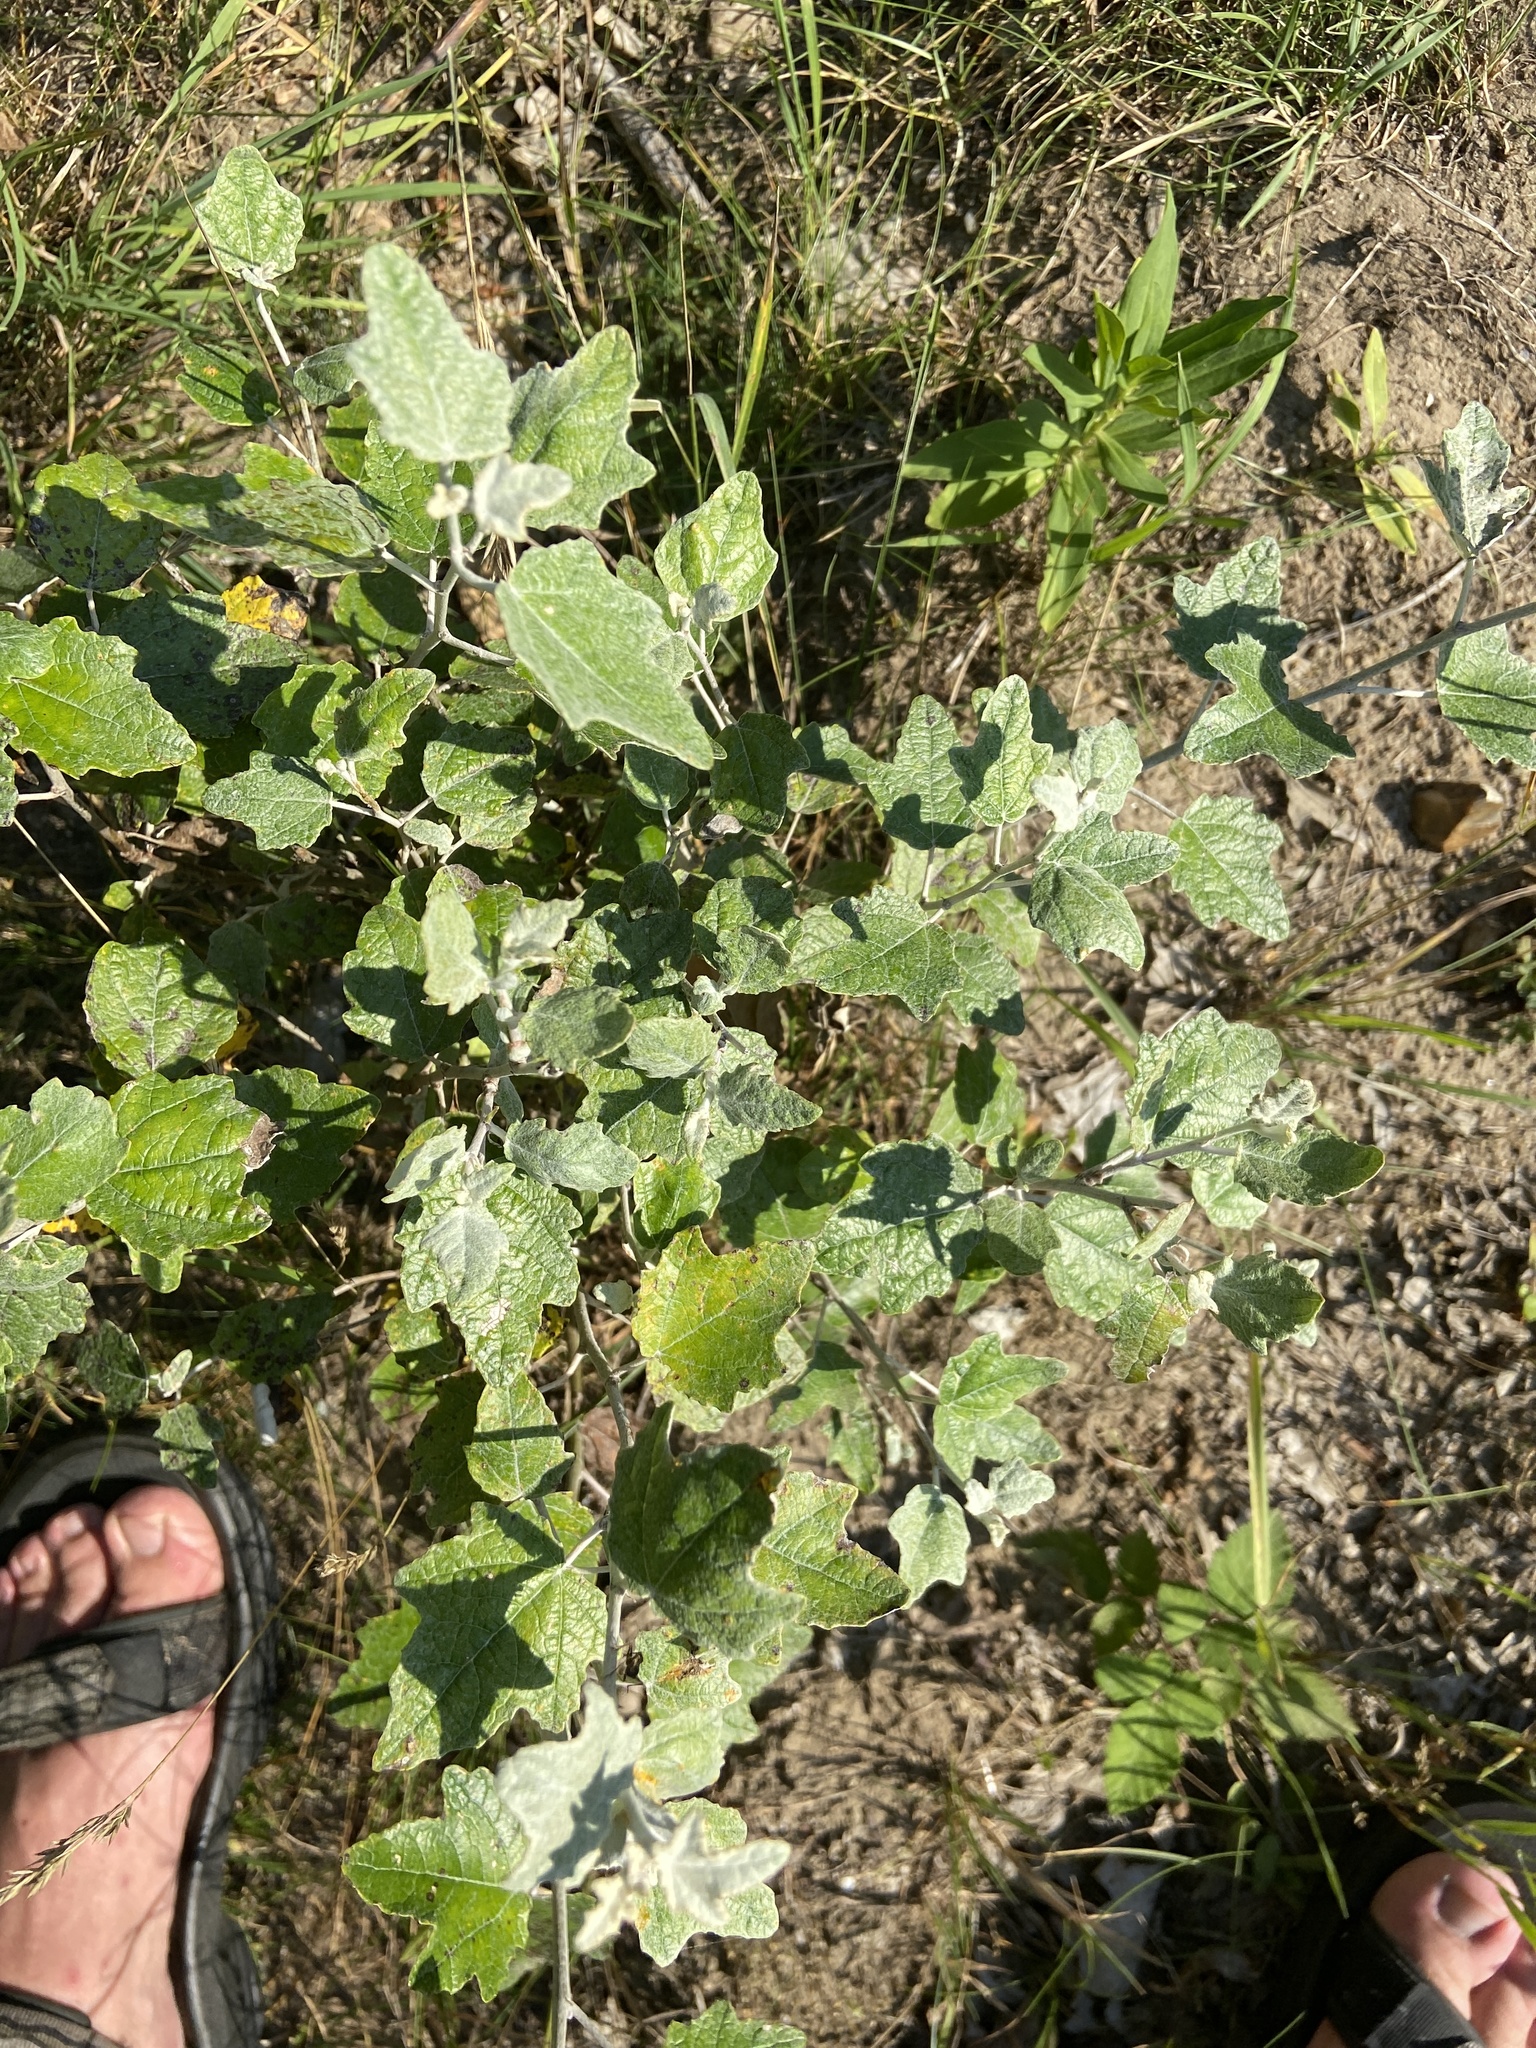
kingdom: Plantae
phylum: Tracheophyta
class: Magnoliopsida
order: Malpighiales
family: Salicaceae
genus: Populus
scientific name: Populus alba
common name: White poplar
